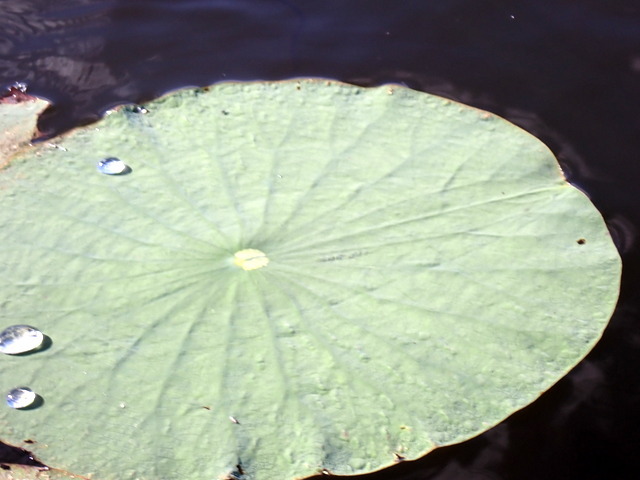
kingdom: Plantae
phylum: Tracheophyta
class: Magnoliopsida
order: Proteales
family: Nelumbonaceae
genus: Nelumbo
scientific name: Nelumbo lutea
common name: American lotus
